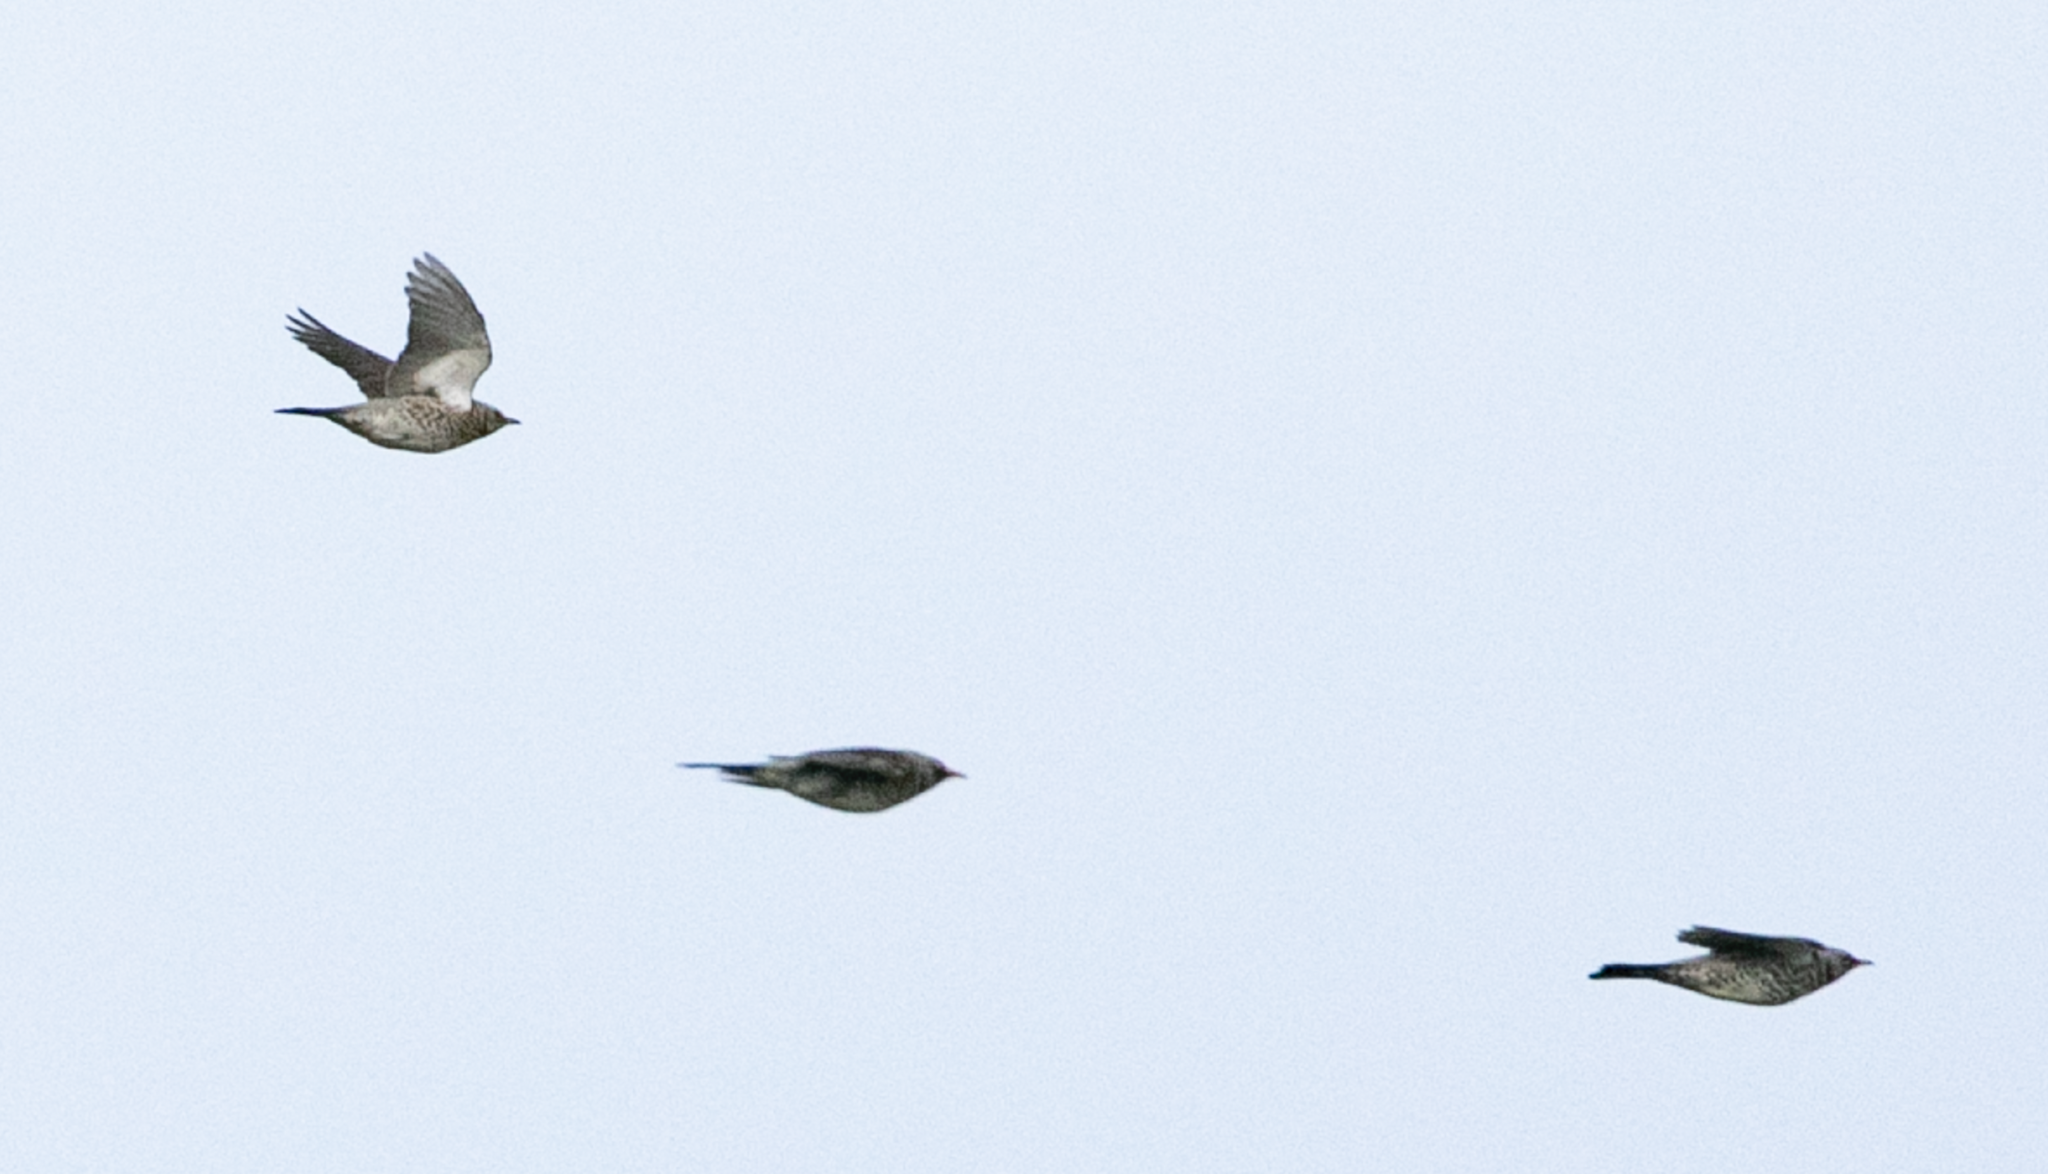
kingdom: Animalia
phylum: Chordata
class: Aves
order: Passeriformes
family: Turdidae
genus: Turdus
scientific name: Turdus pilaris
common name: Fieldfare
